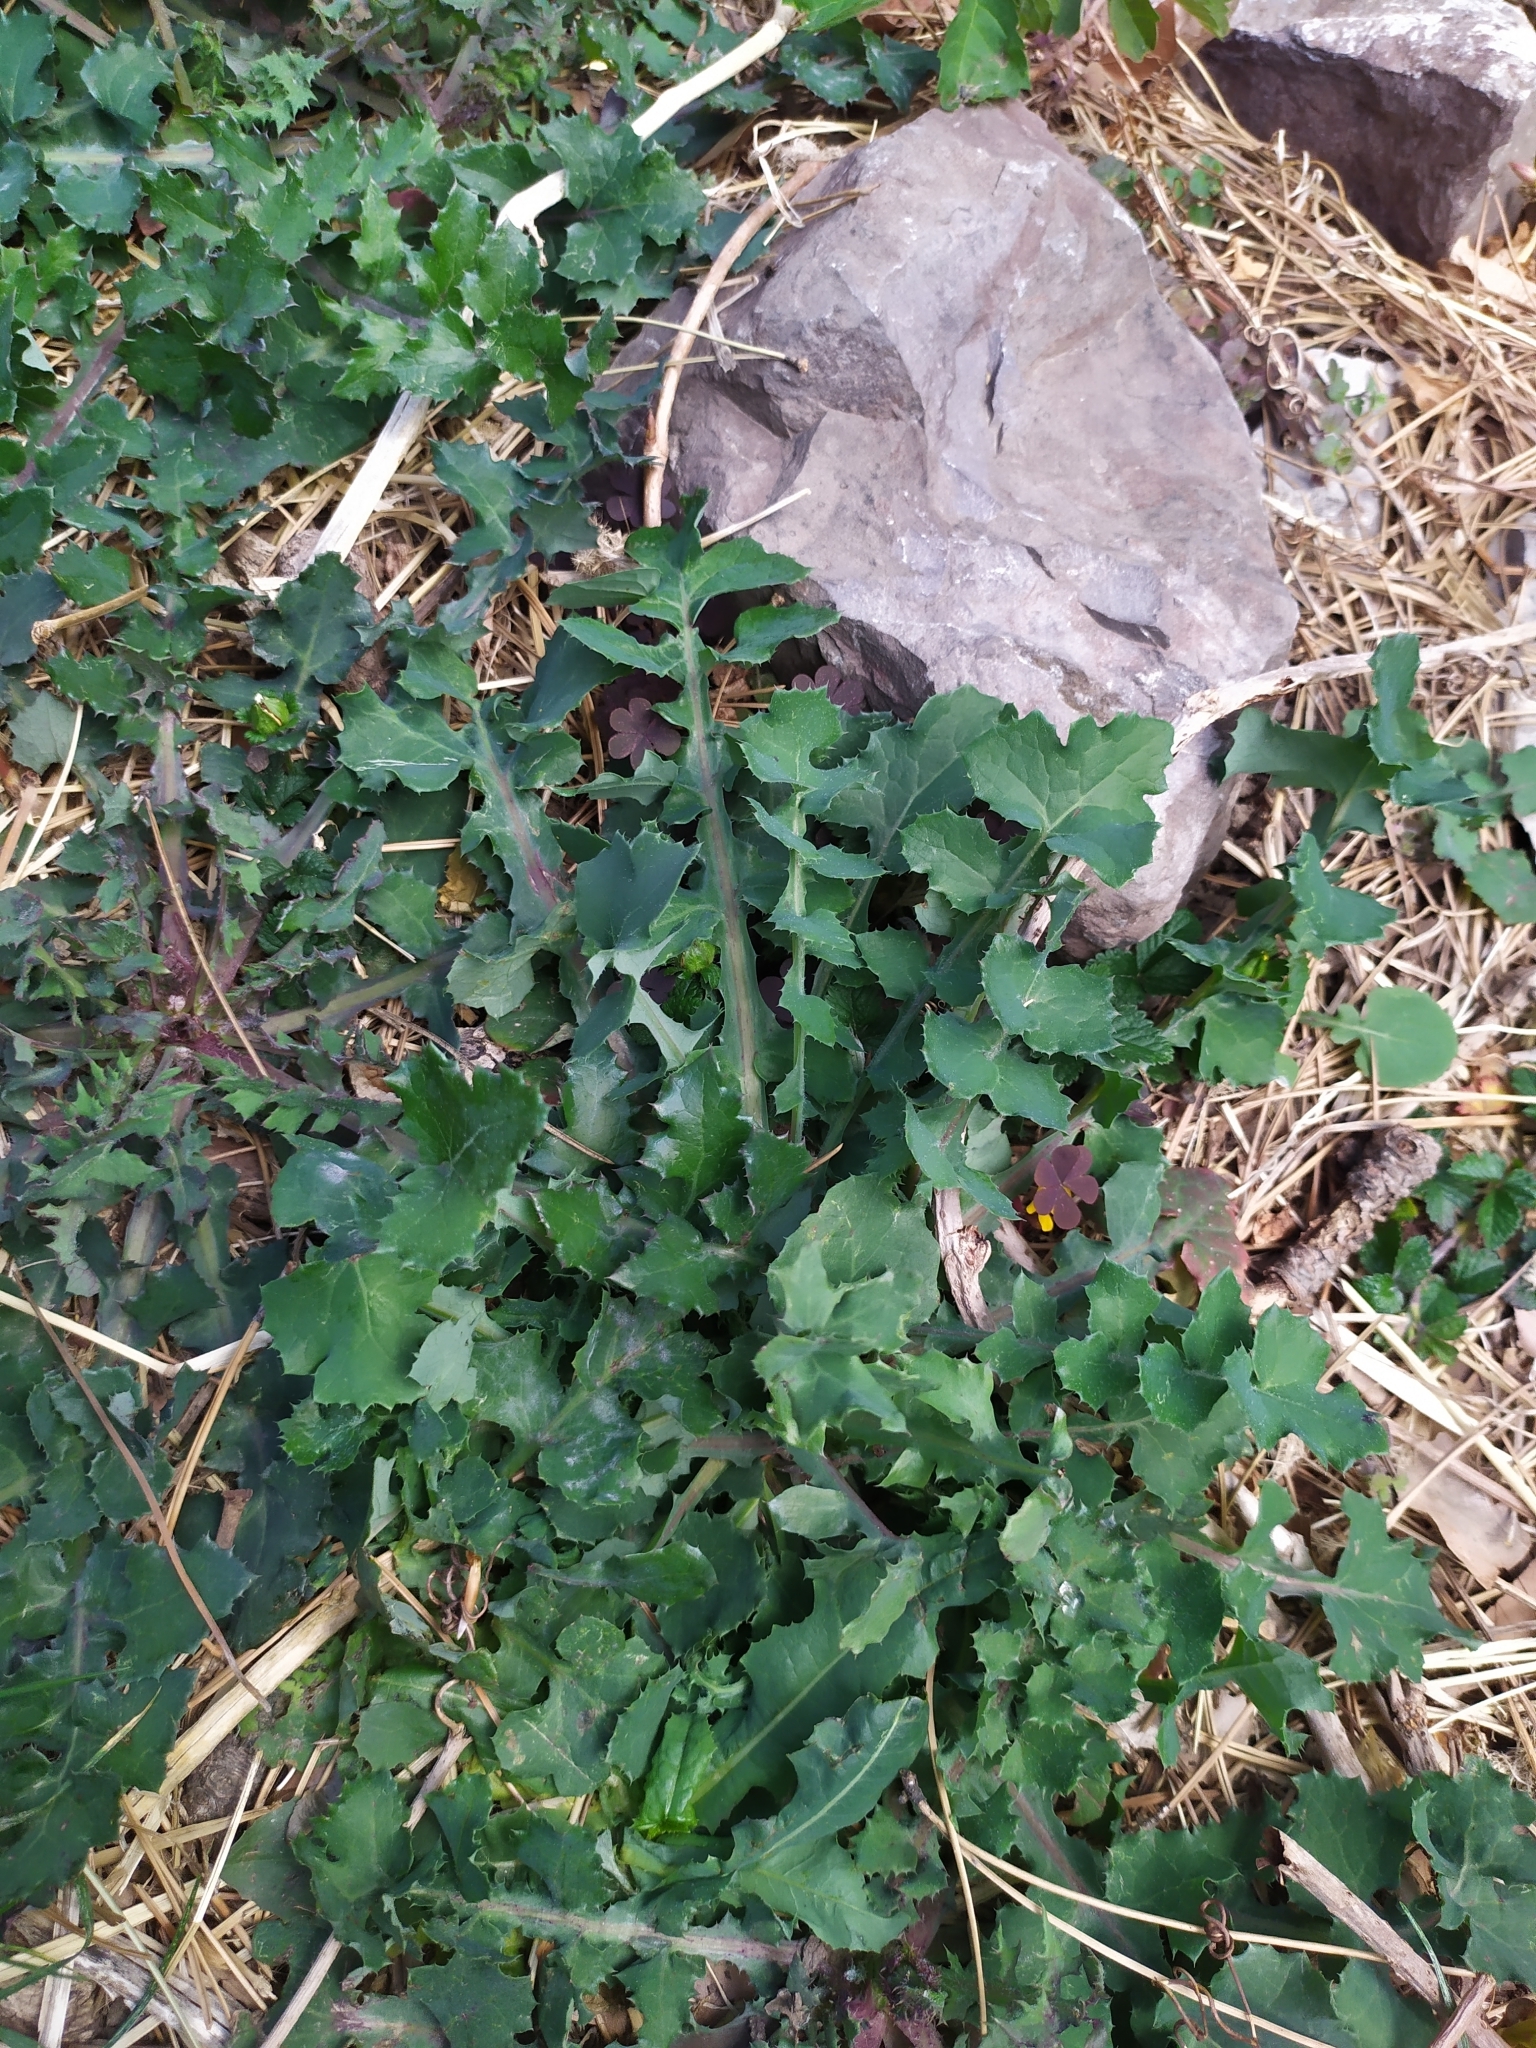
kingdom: Plantae
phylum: Tracheophyta
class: Magnoliopsida
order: Asterales
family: Asteraceae
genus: Sonchus
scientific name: Sonchus oleraceus
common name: Common sowthistle
